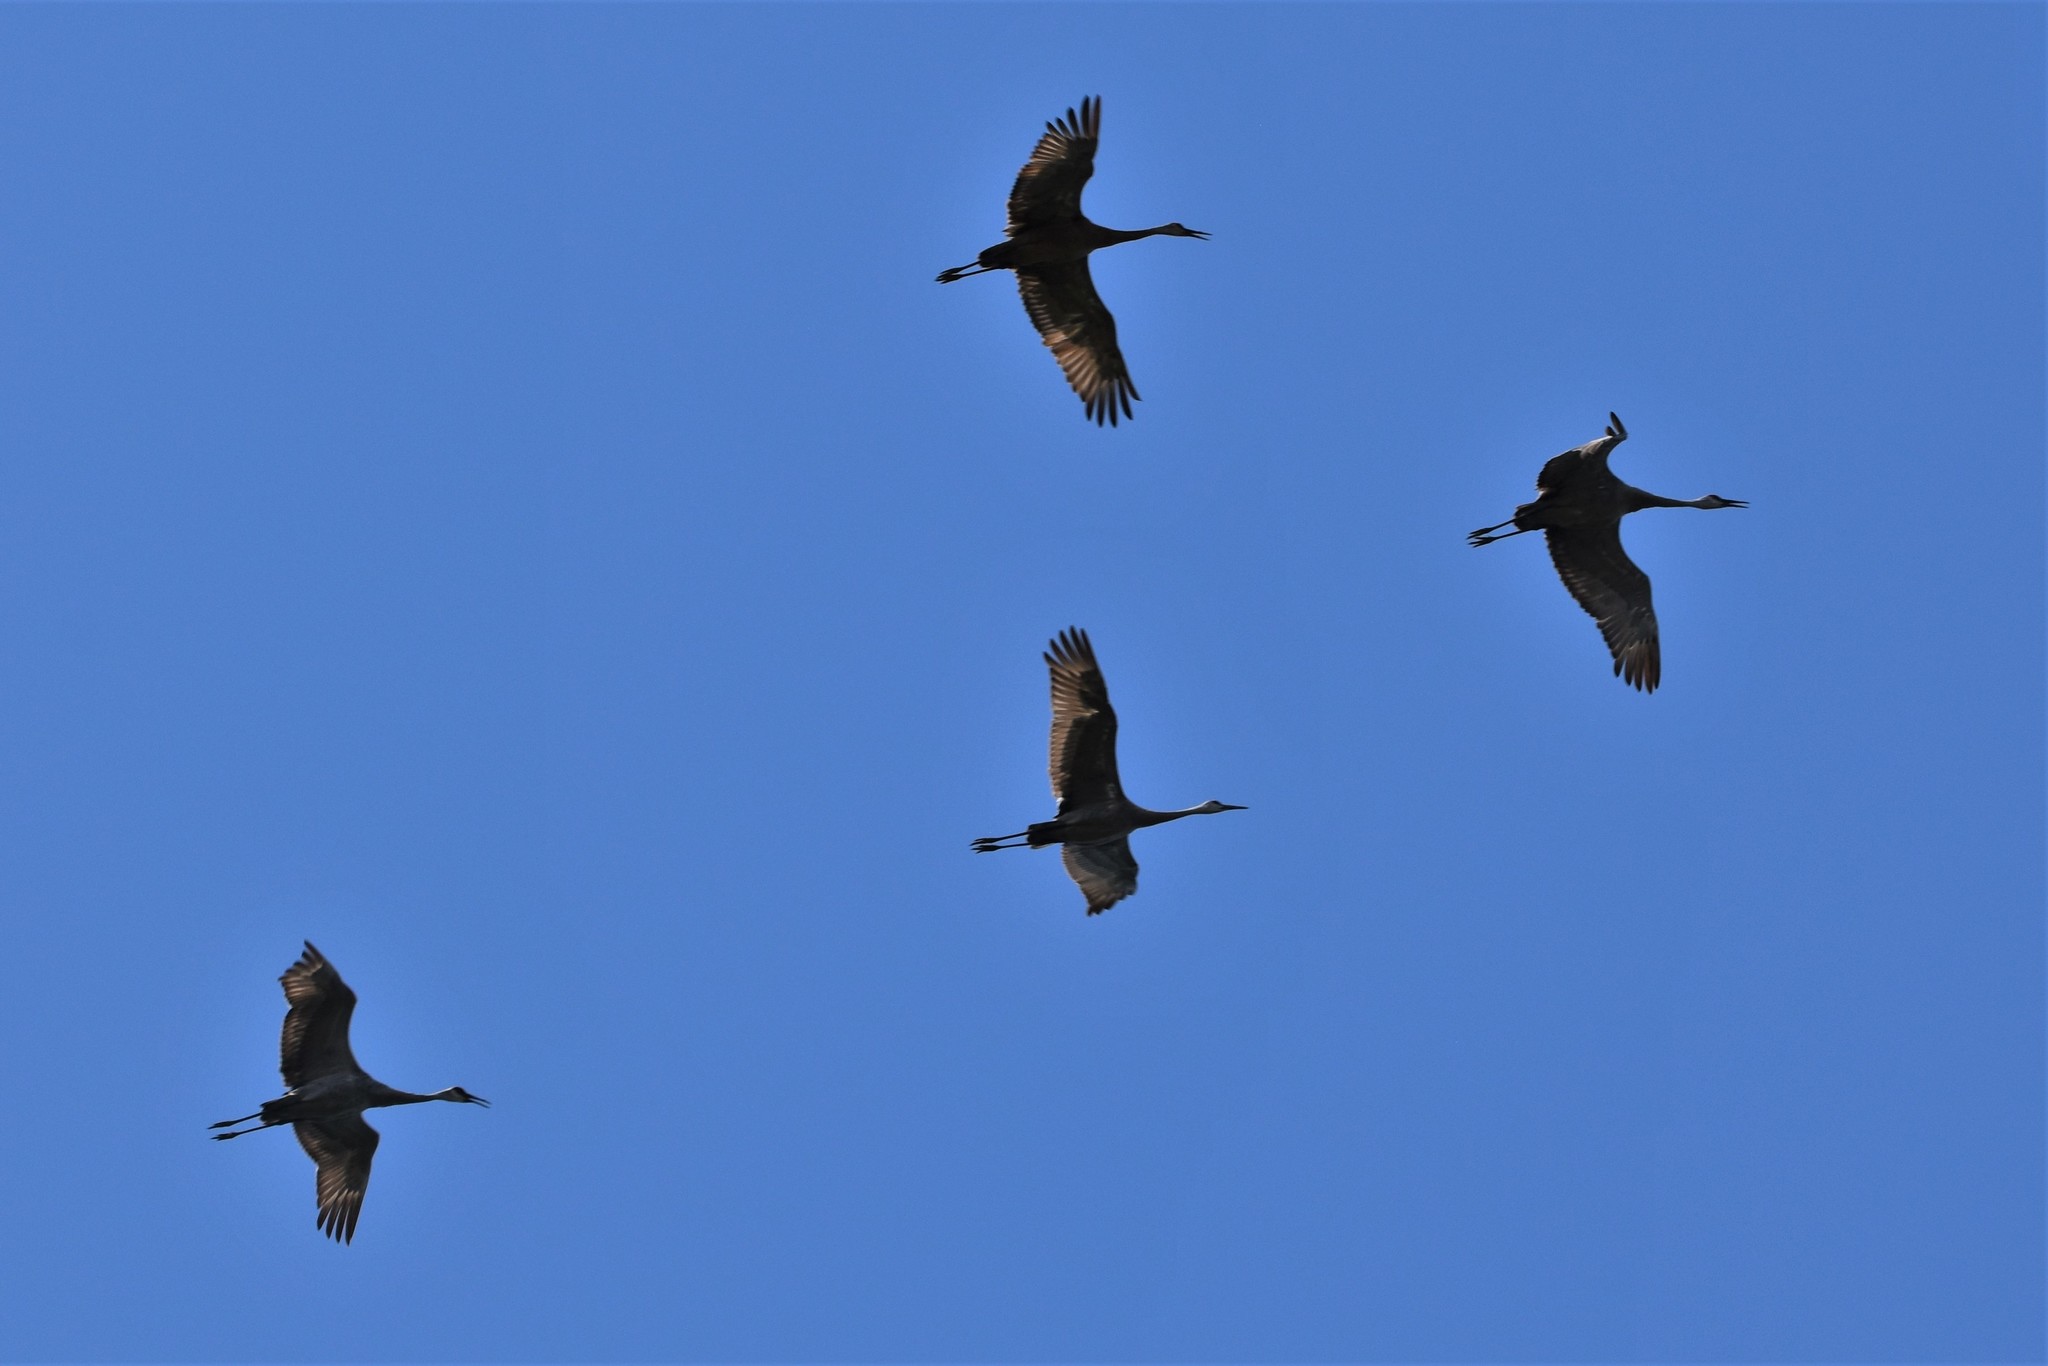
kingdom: Animalia
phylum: Chordata
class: Aves
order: Gruiformes
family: Gruidae
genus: Grus
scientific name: Grus canadensis
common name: Sandhill crane
